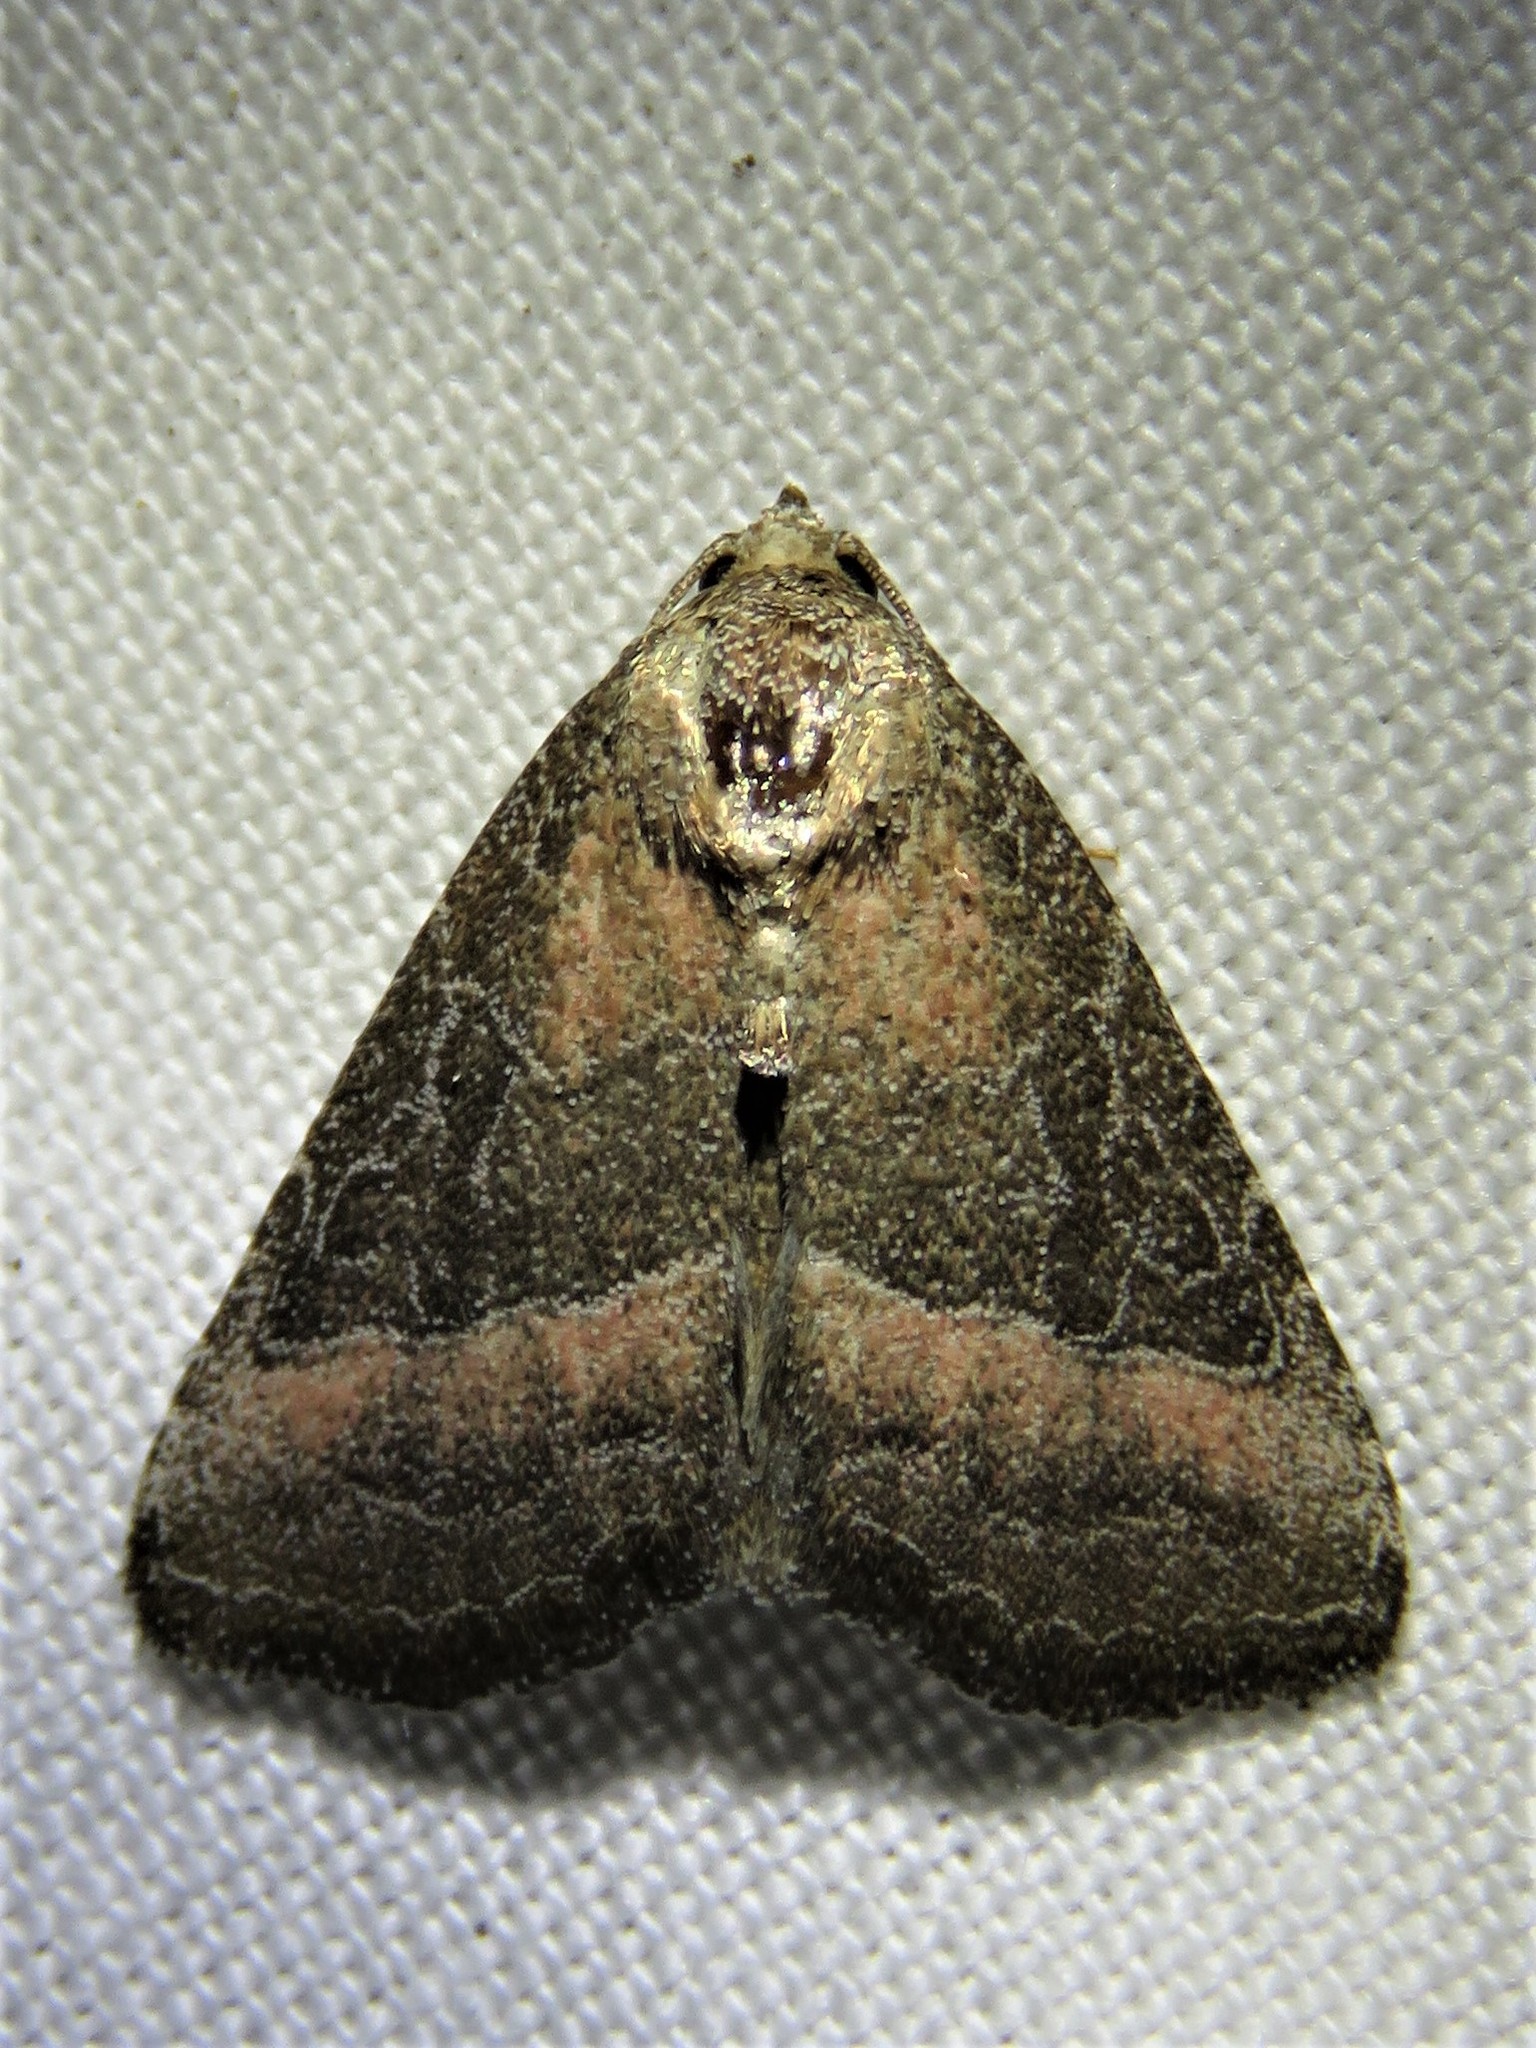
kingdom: Animalia
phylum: Arthropoda
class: Insecta
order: Lepidoptera
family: Noctuidae
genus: Ogdoconta
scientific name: Ogdoconta cinereola
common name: Common pinkband
